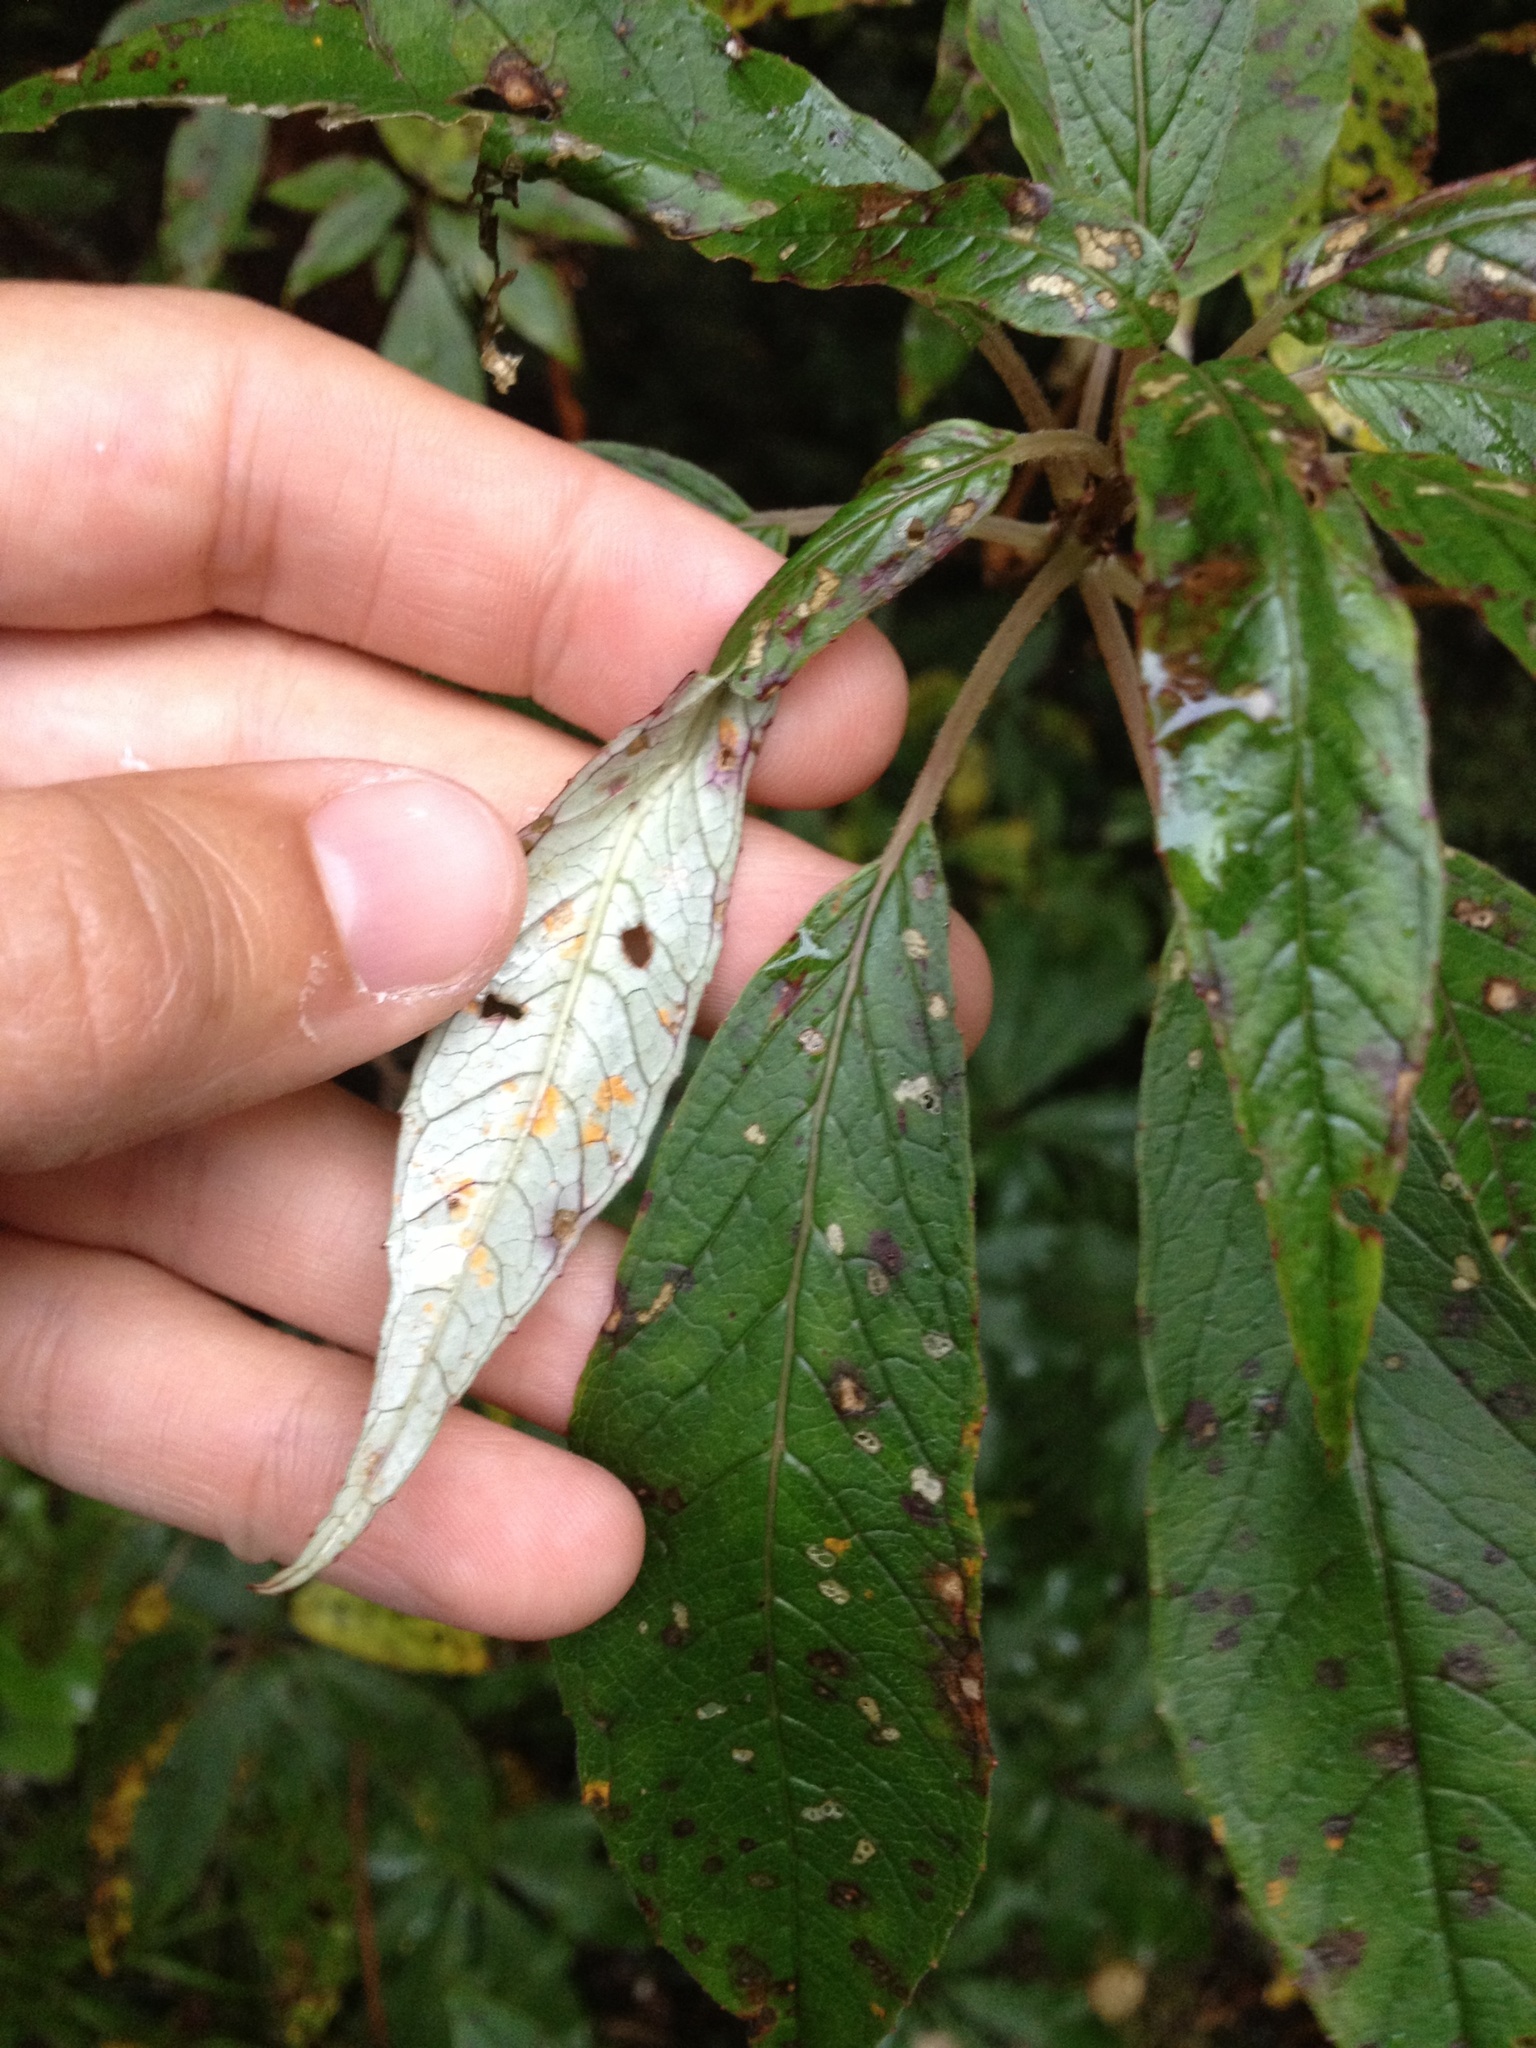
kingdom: Fungi
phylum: Basidiomycota
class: Pucciniomycetes
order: Pucciniales
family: Mikronegeriaceae
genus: Mikronegeria
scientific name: Mikronegeria fuchsiae
